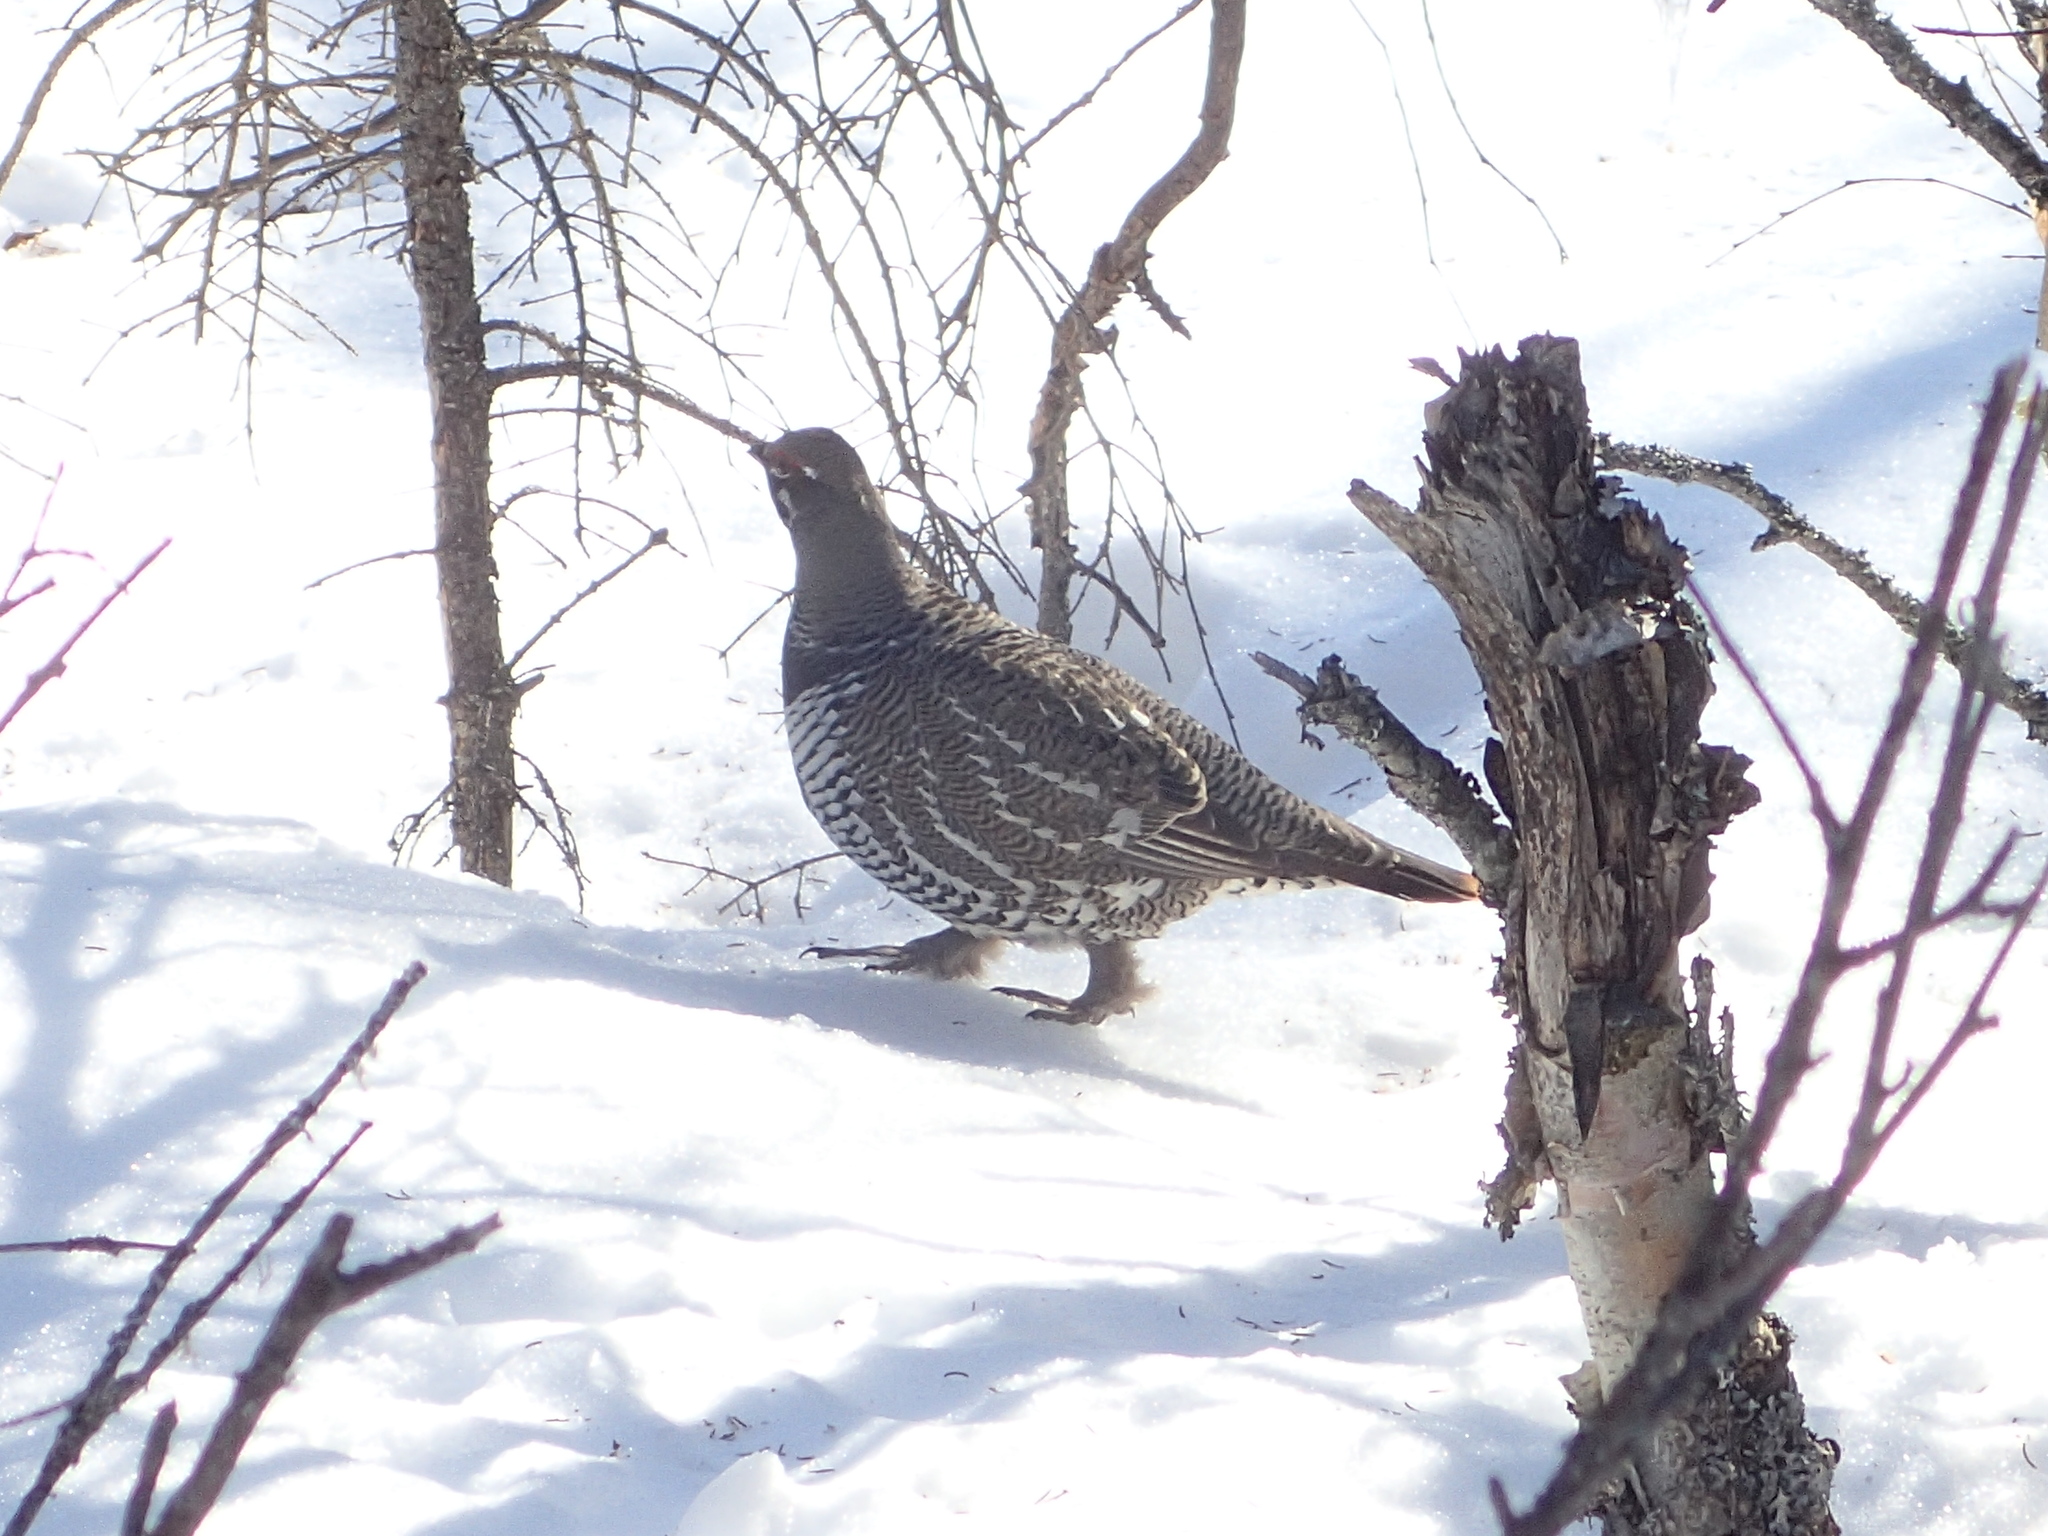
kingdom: Animalia
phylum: Chordata
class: Aves
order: Galliformes
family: Phasianidae
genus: Canachites
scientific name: Canachites canadensis
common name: Spruce grouse
